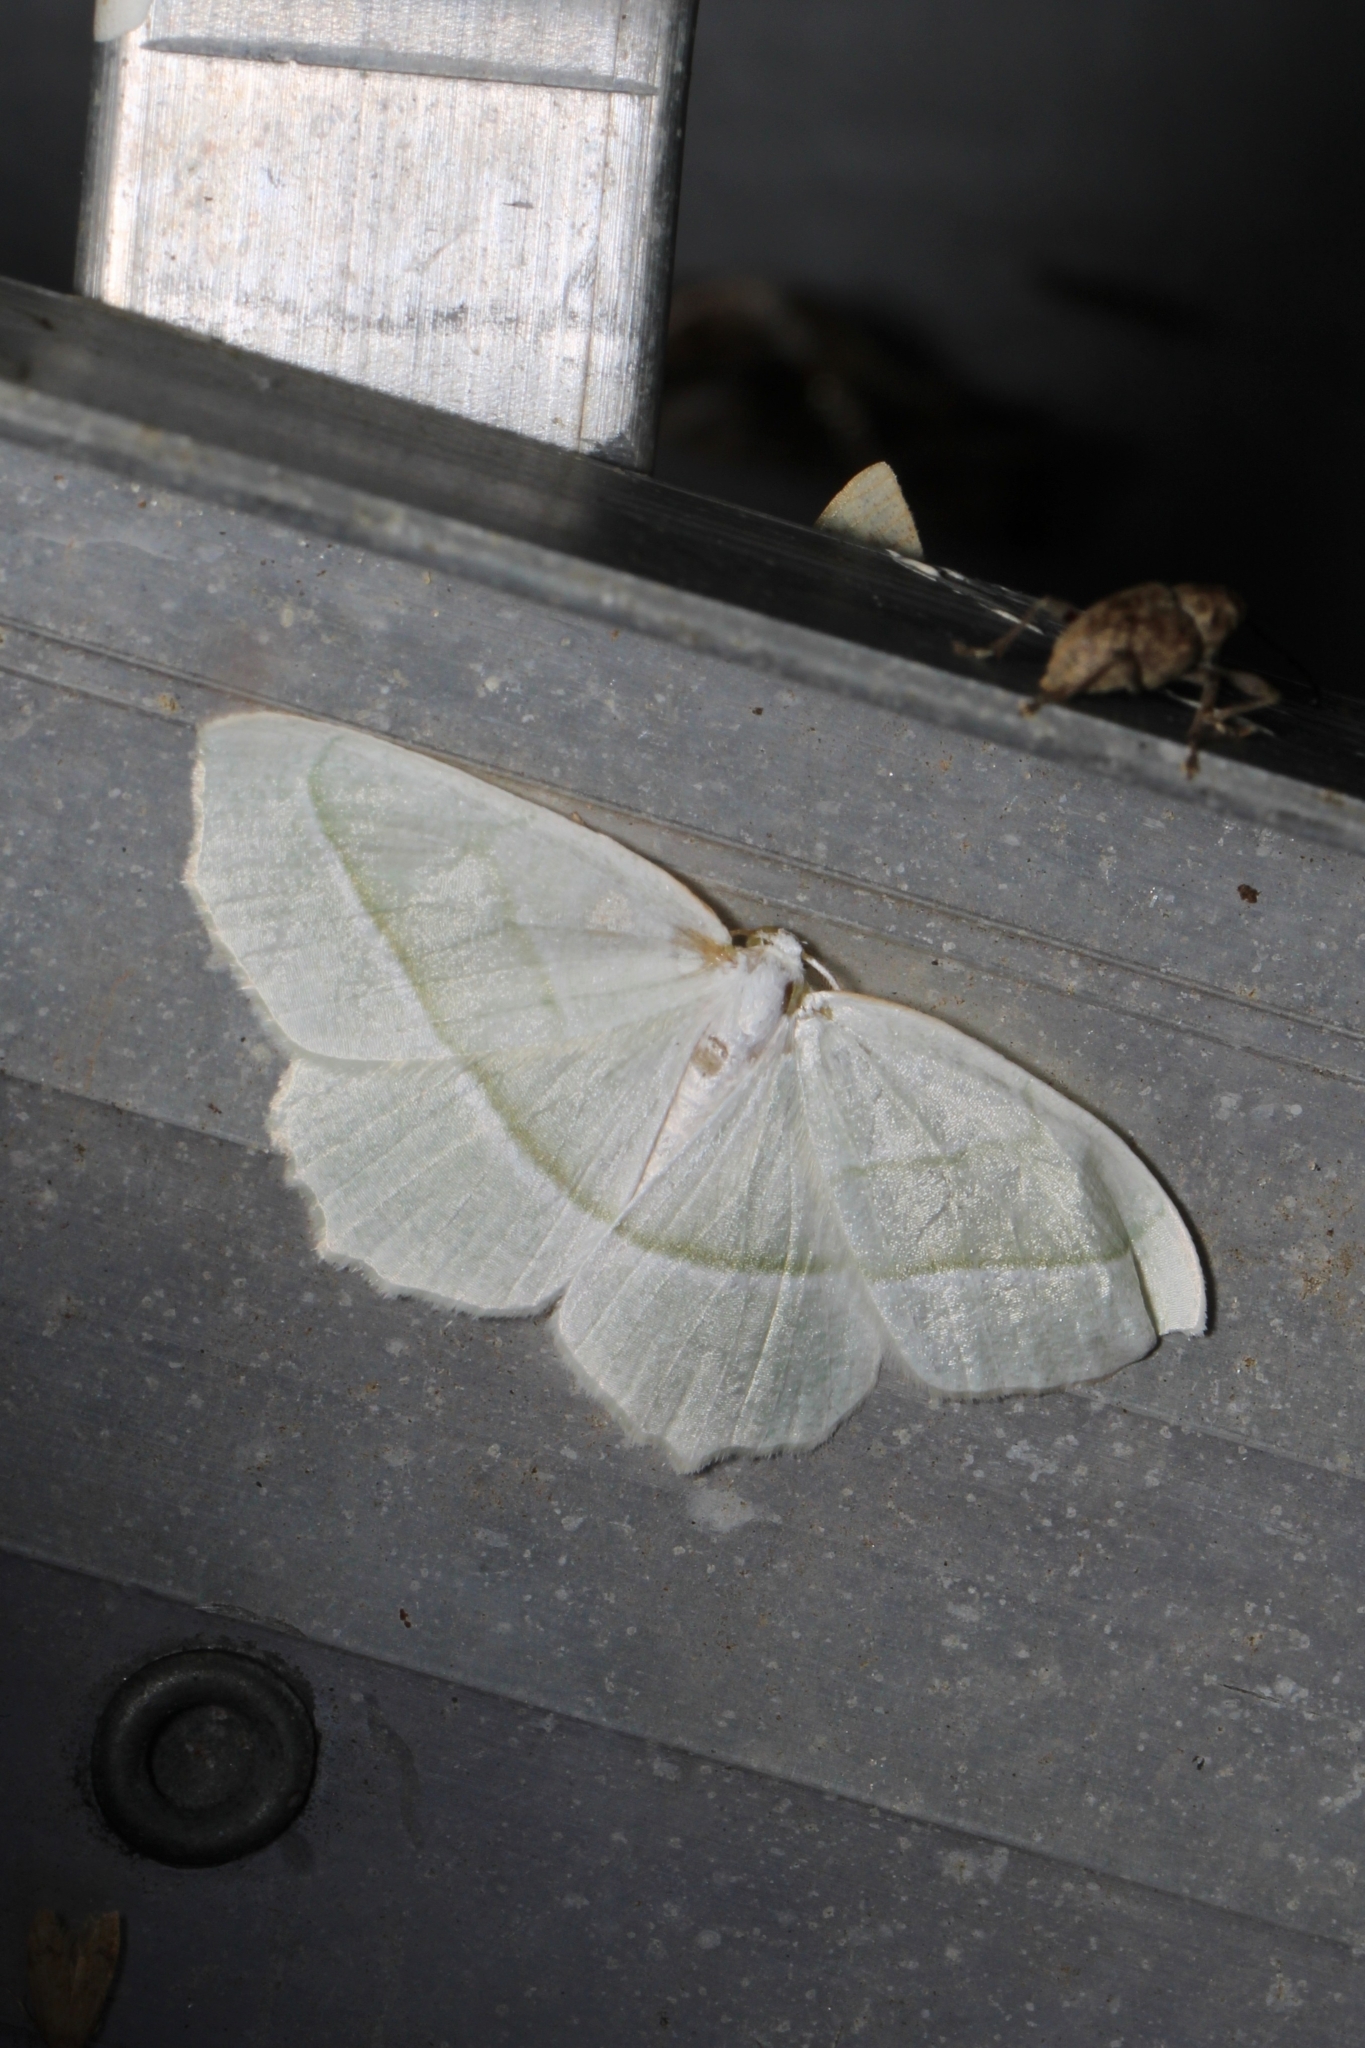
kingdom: Animalia
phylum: Arthropoda
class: Insecta
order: Lepidoptera
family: Geometridae
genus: Campaea
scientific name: Campaea perlata
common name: Fringed looper
